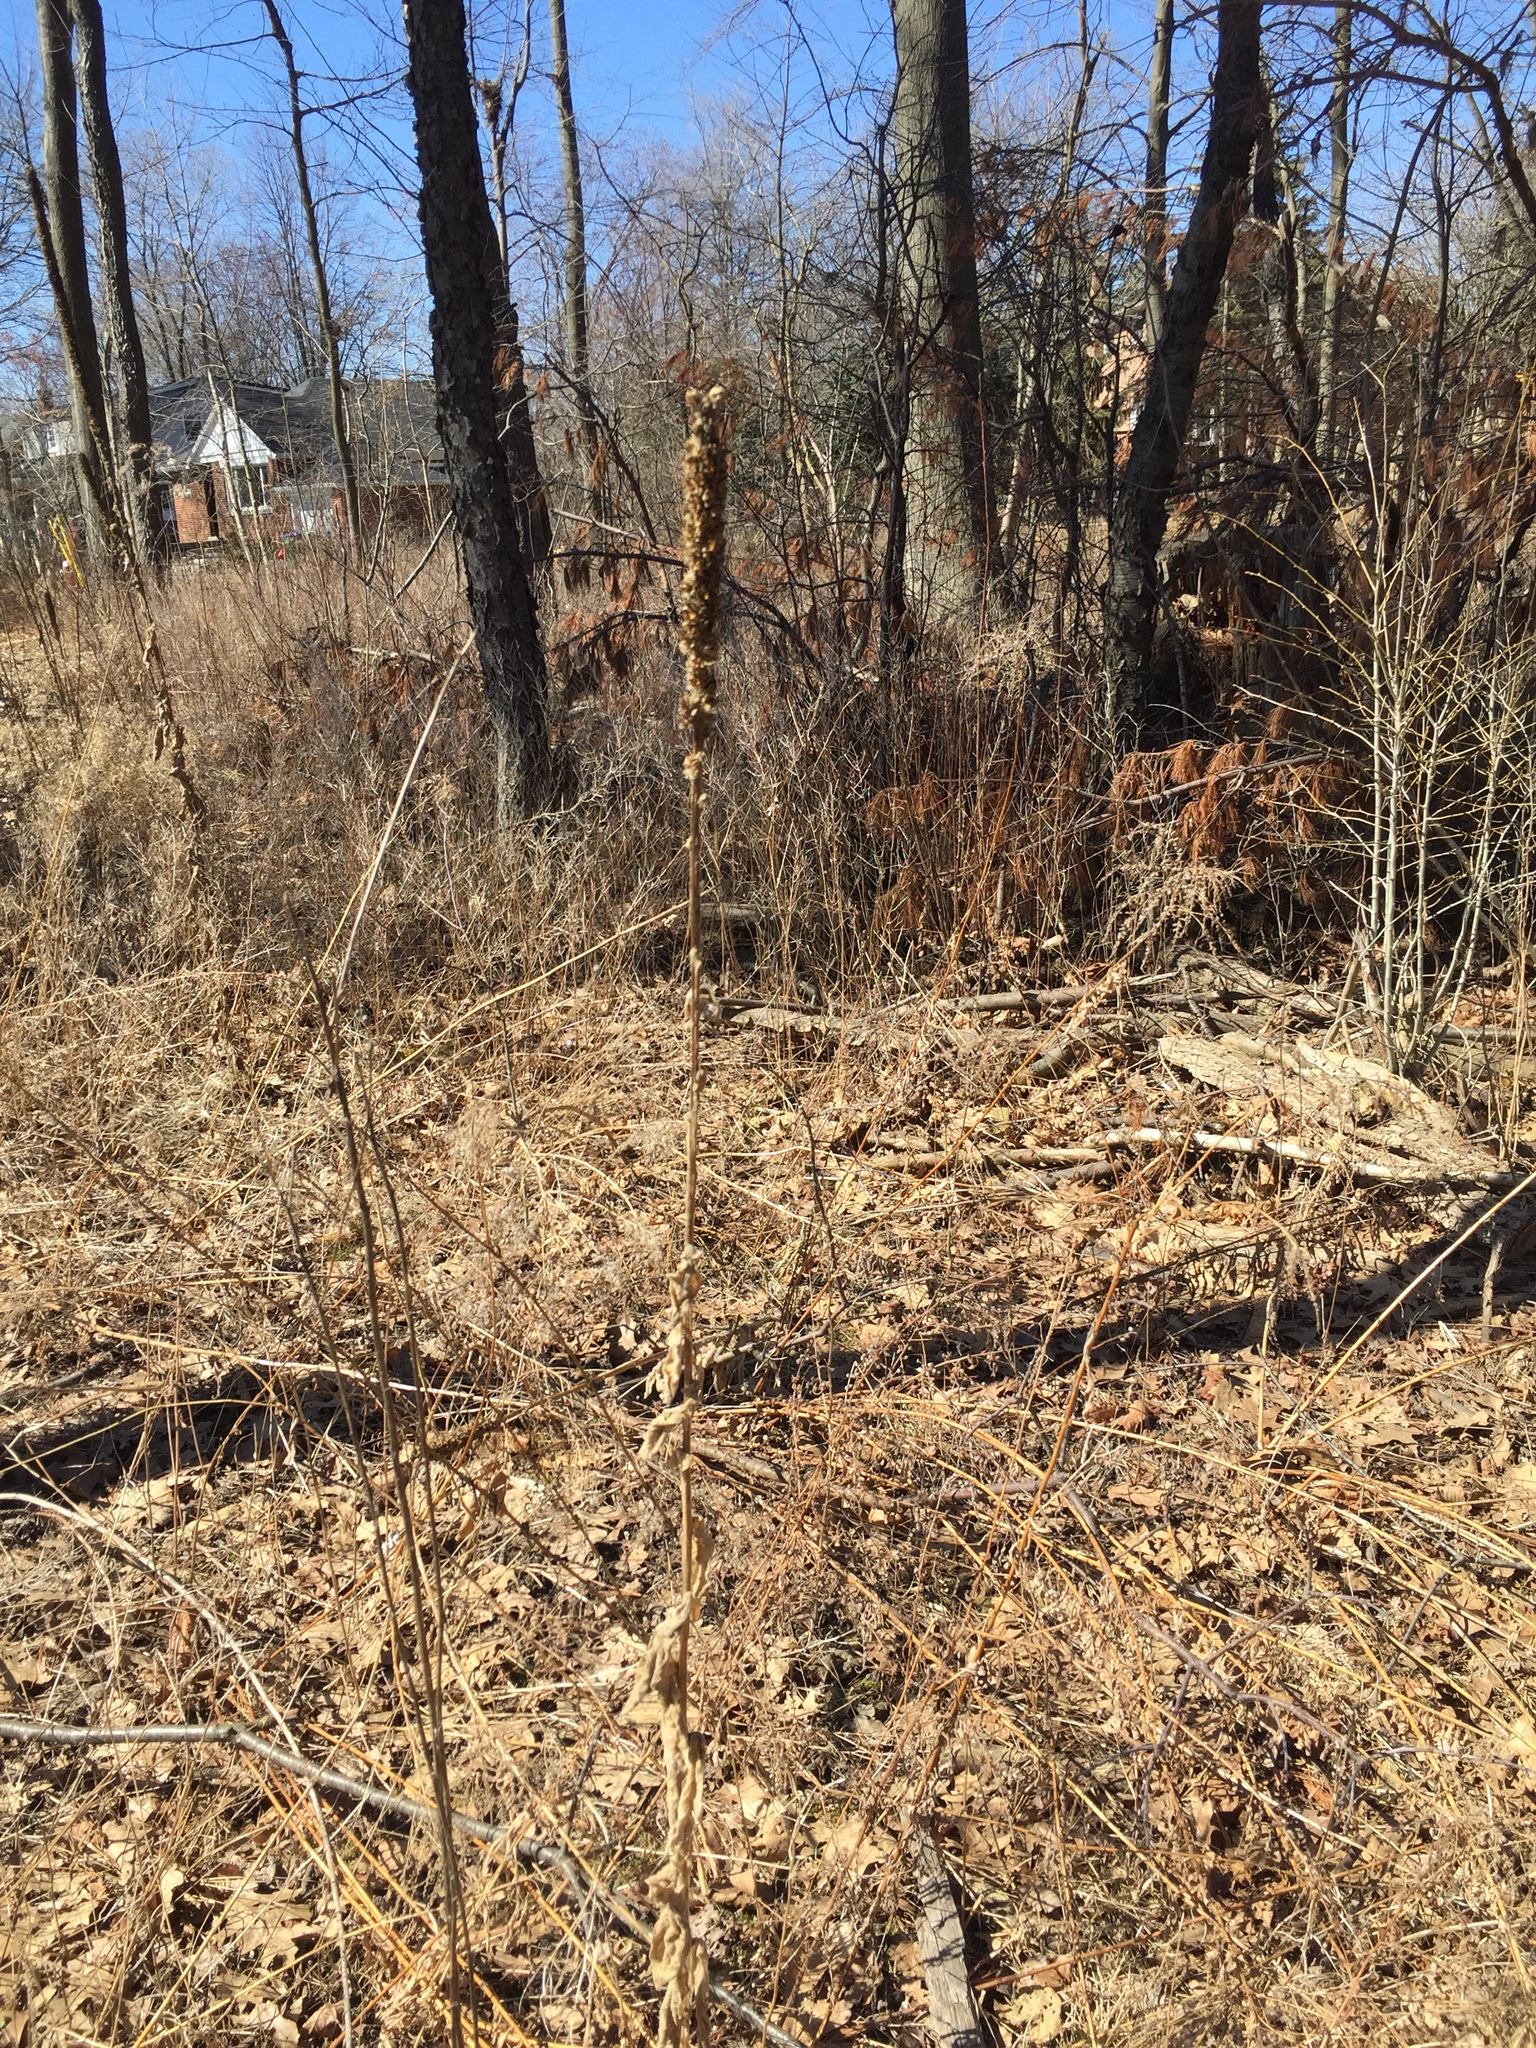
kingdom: Plantae
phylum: Tracheophyta
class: Magnoliopsida
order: Lamiales
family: Scrophulariaceae
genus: Verbascum
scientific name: Verbascum thapsus
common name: Common mullein
